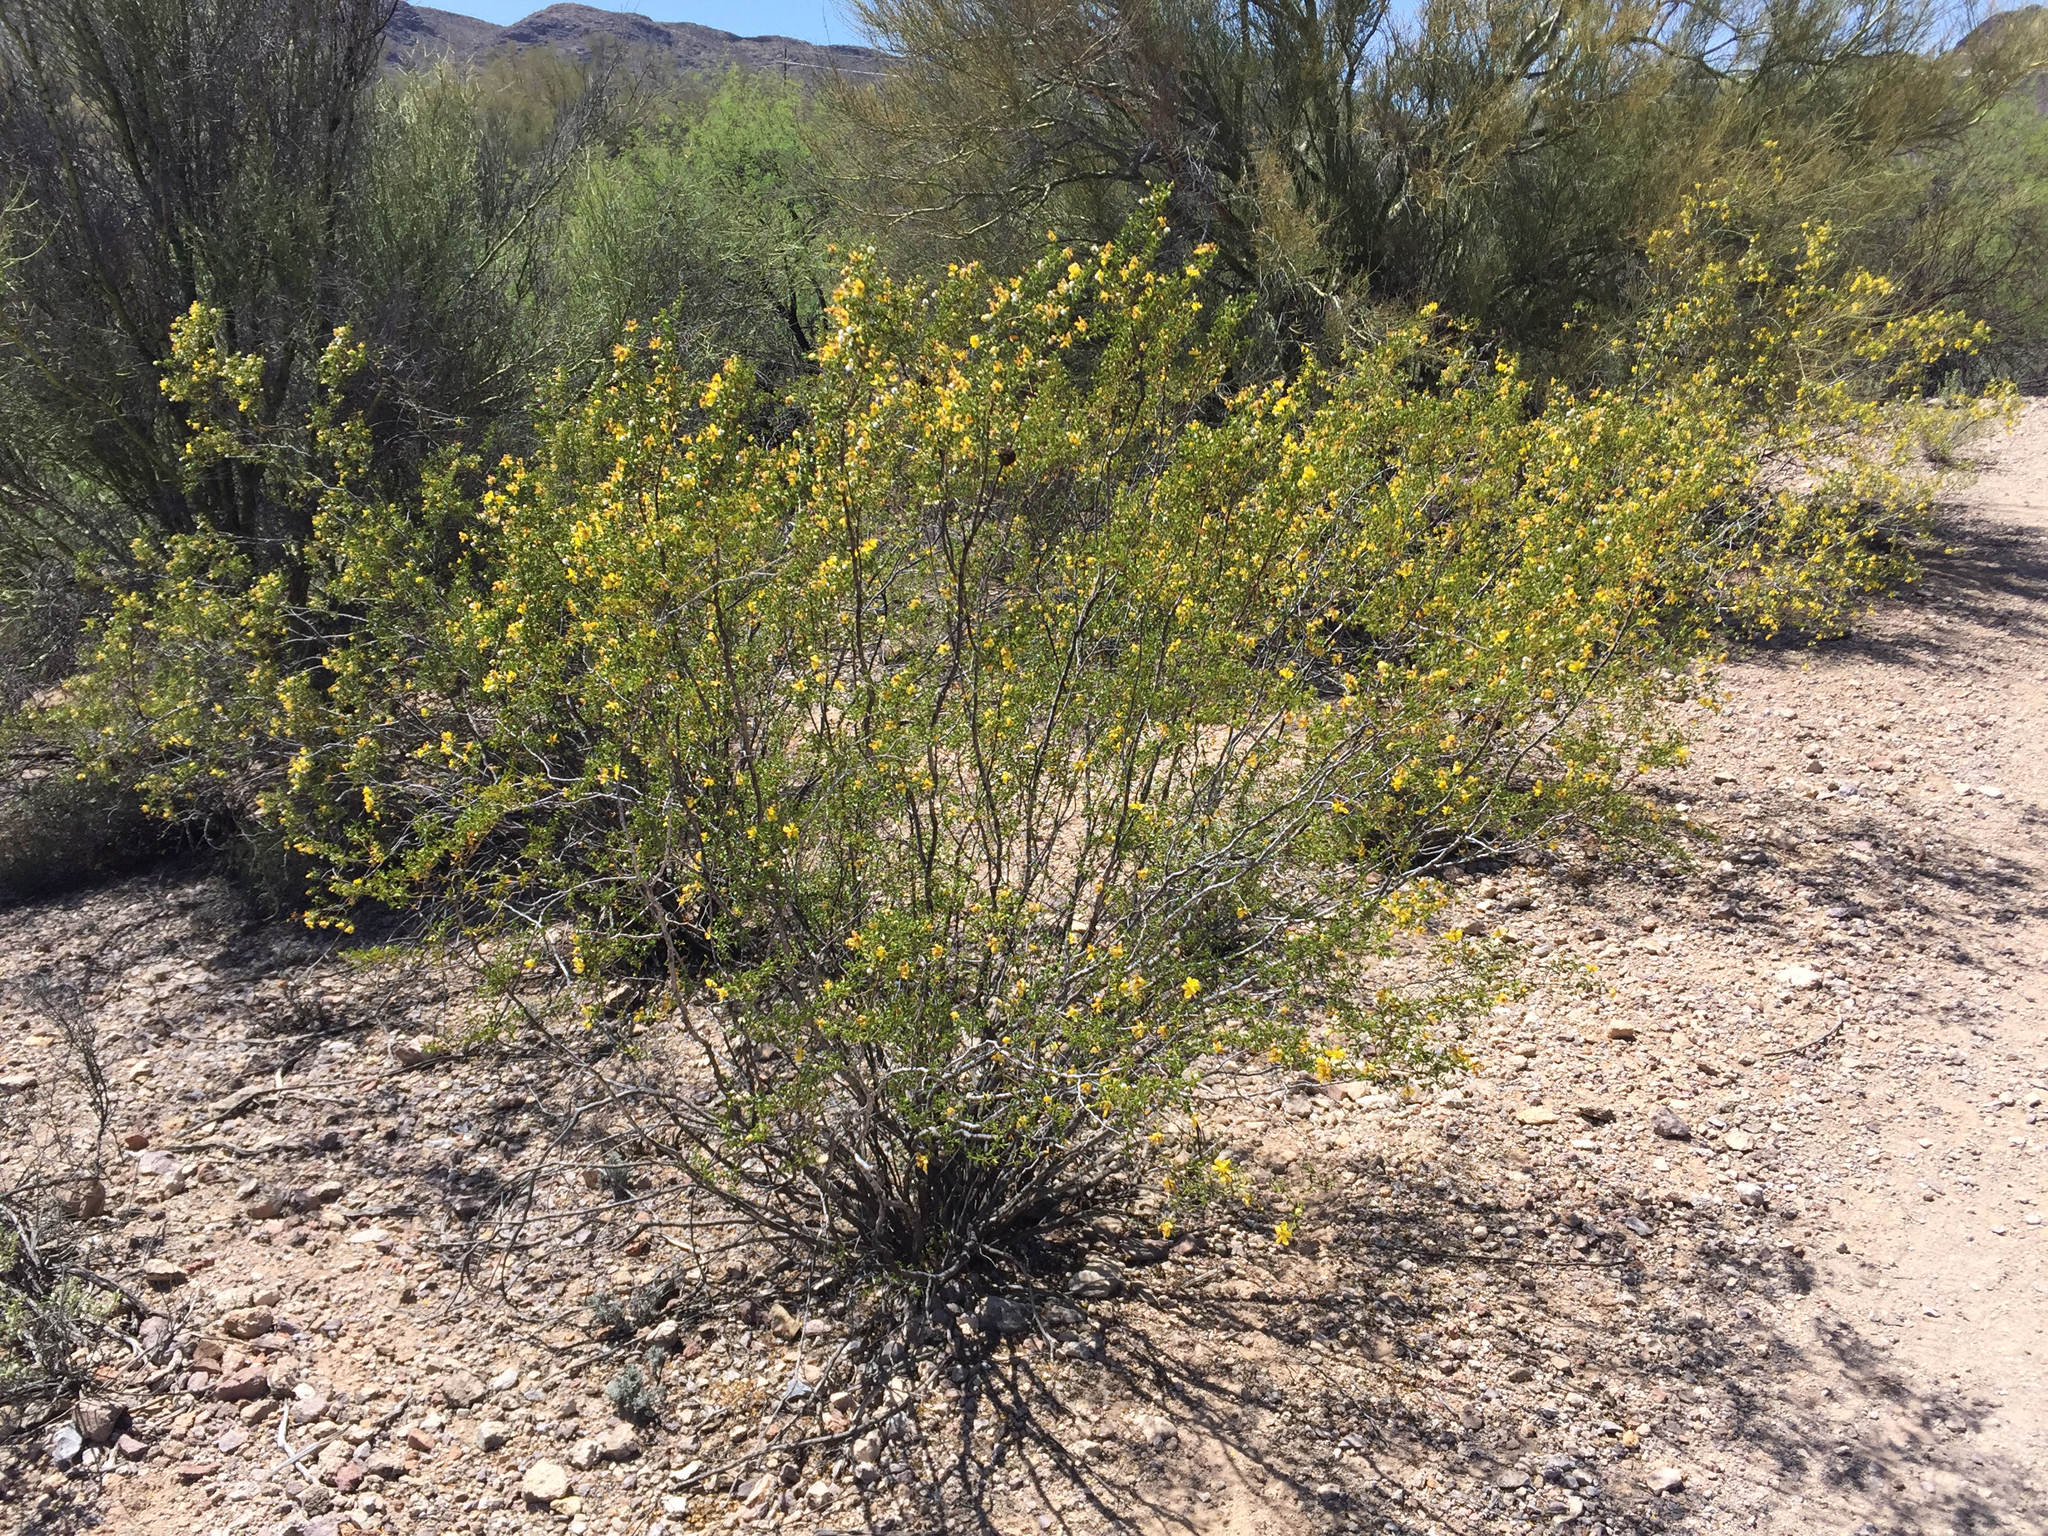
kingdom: Plantae
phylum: Tracheophyta
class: Magnoliopsida
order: Zygophyllales
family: Zygophyllaceae
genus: Larrea
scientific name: Larrea tridentata
